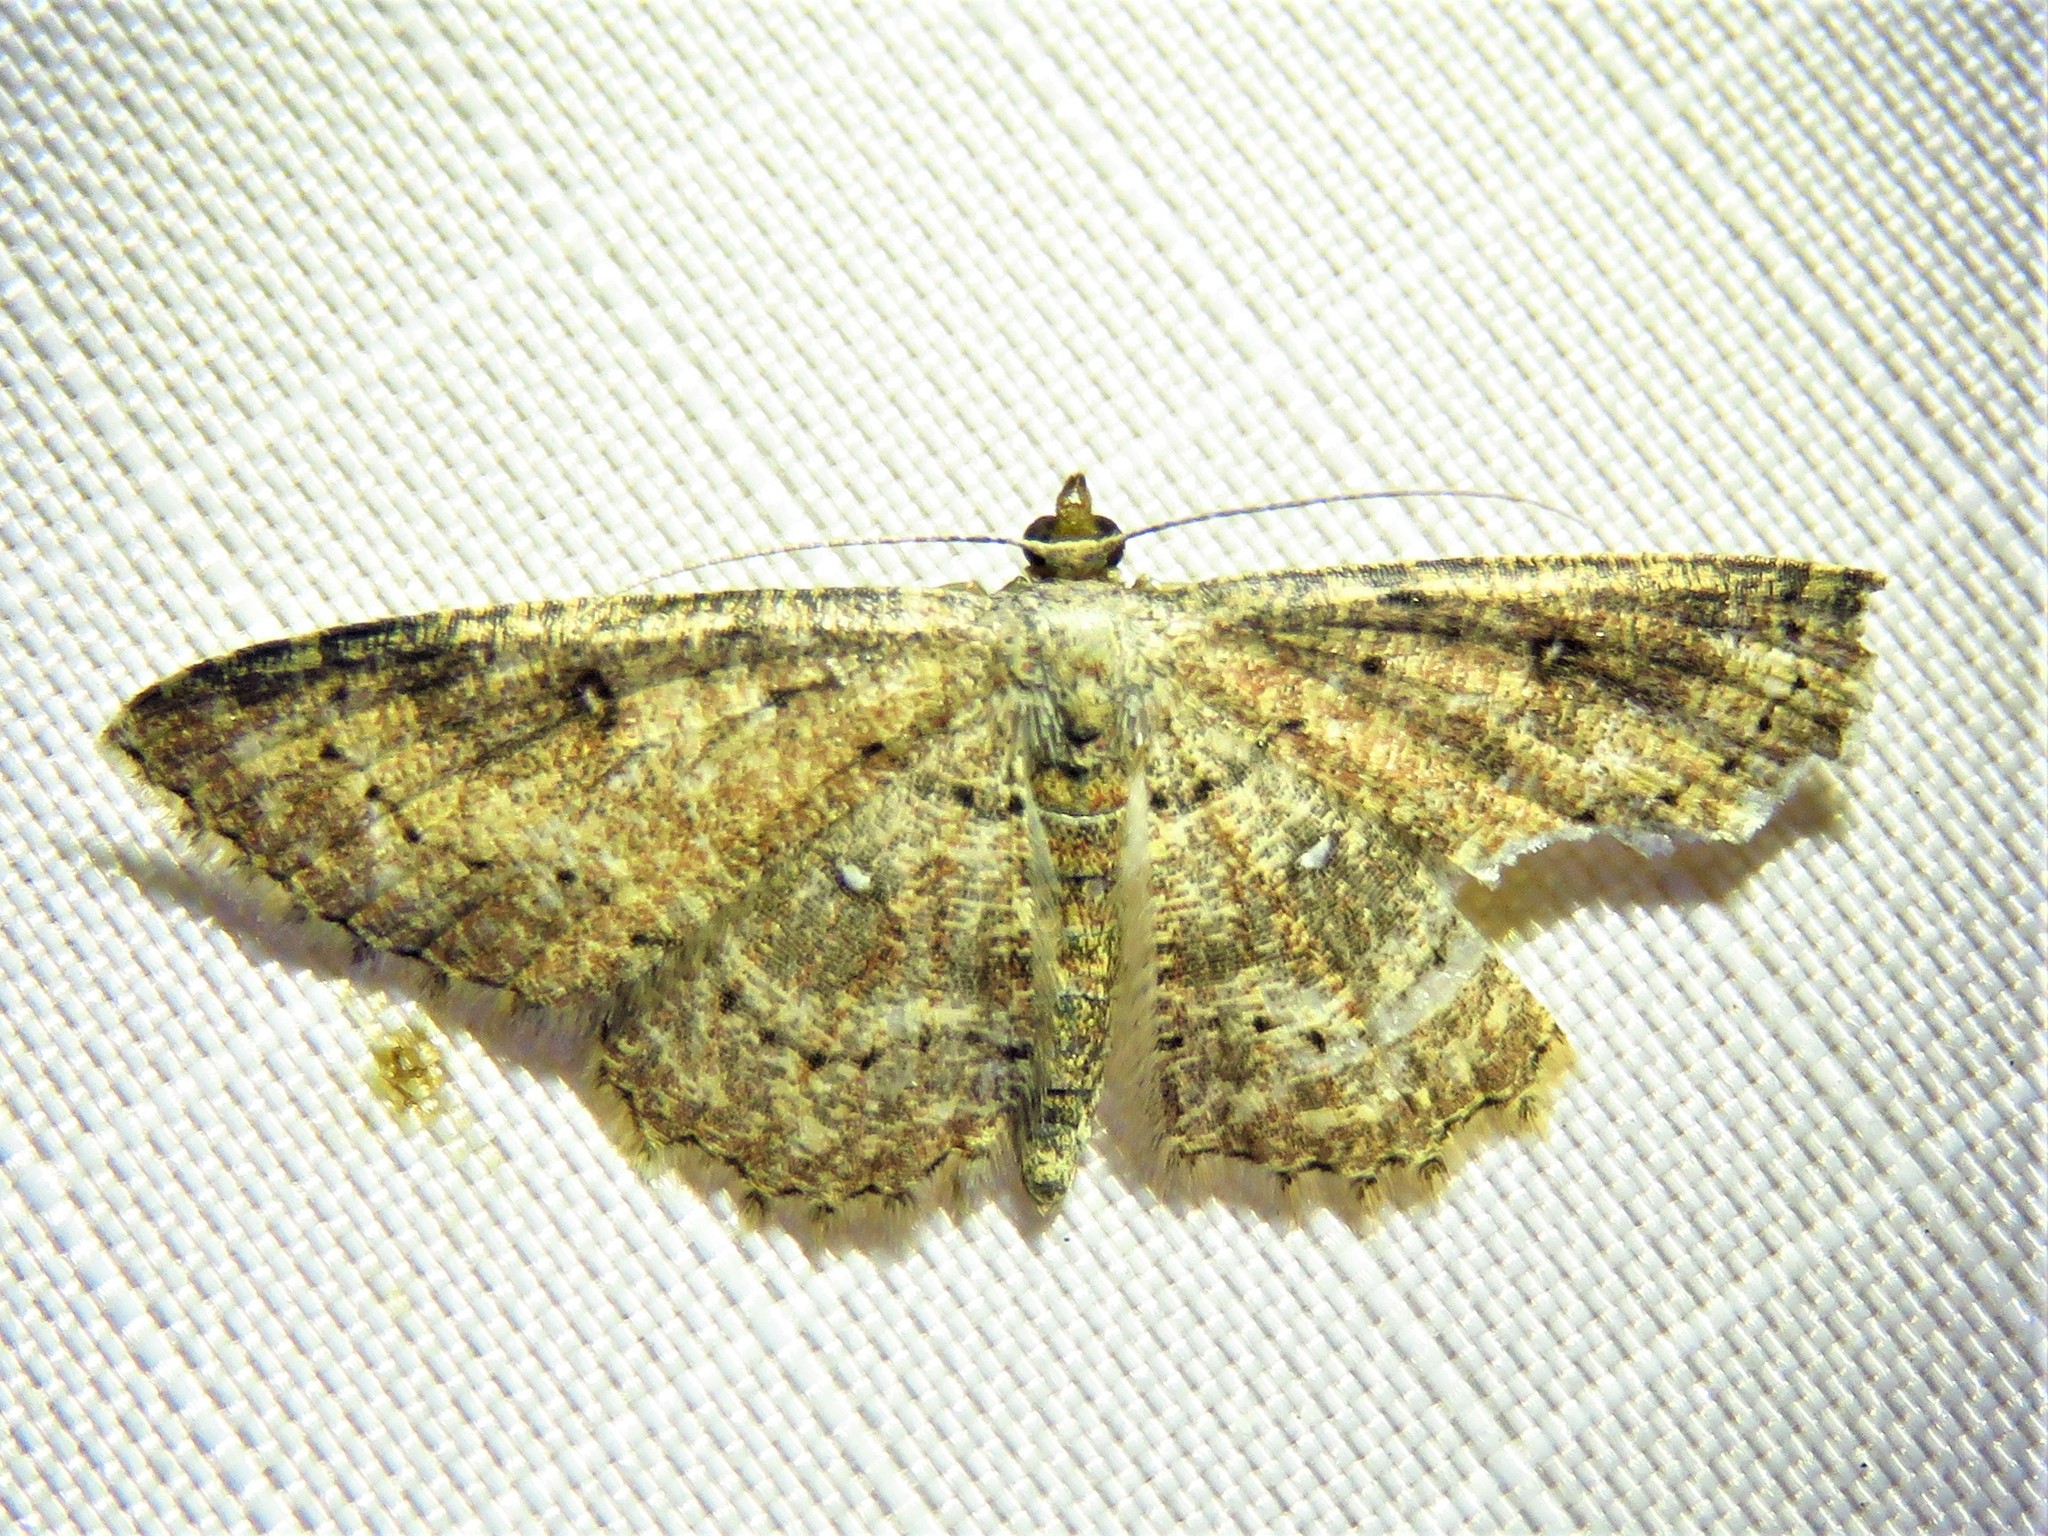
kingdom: Animalia
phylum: Arthropoda
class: Insecta
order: Lepidoptera
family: Geometridae
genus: Cyclophora
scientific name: Cyclophora nanaria
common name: Cankerworm
